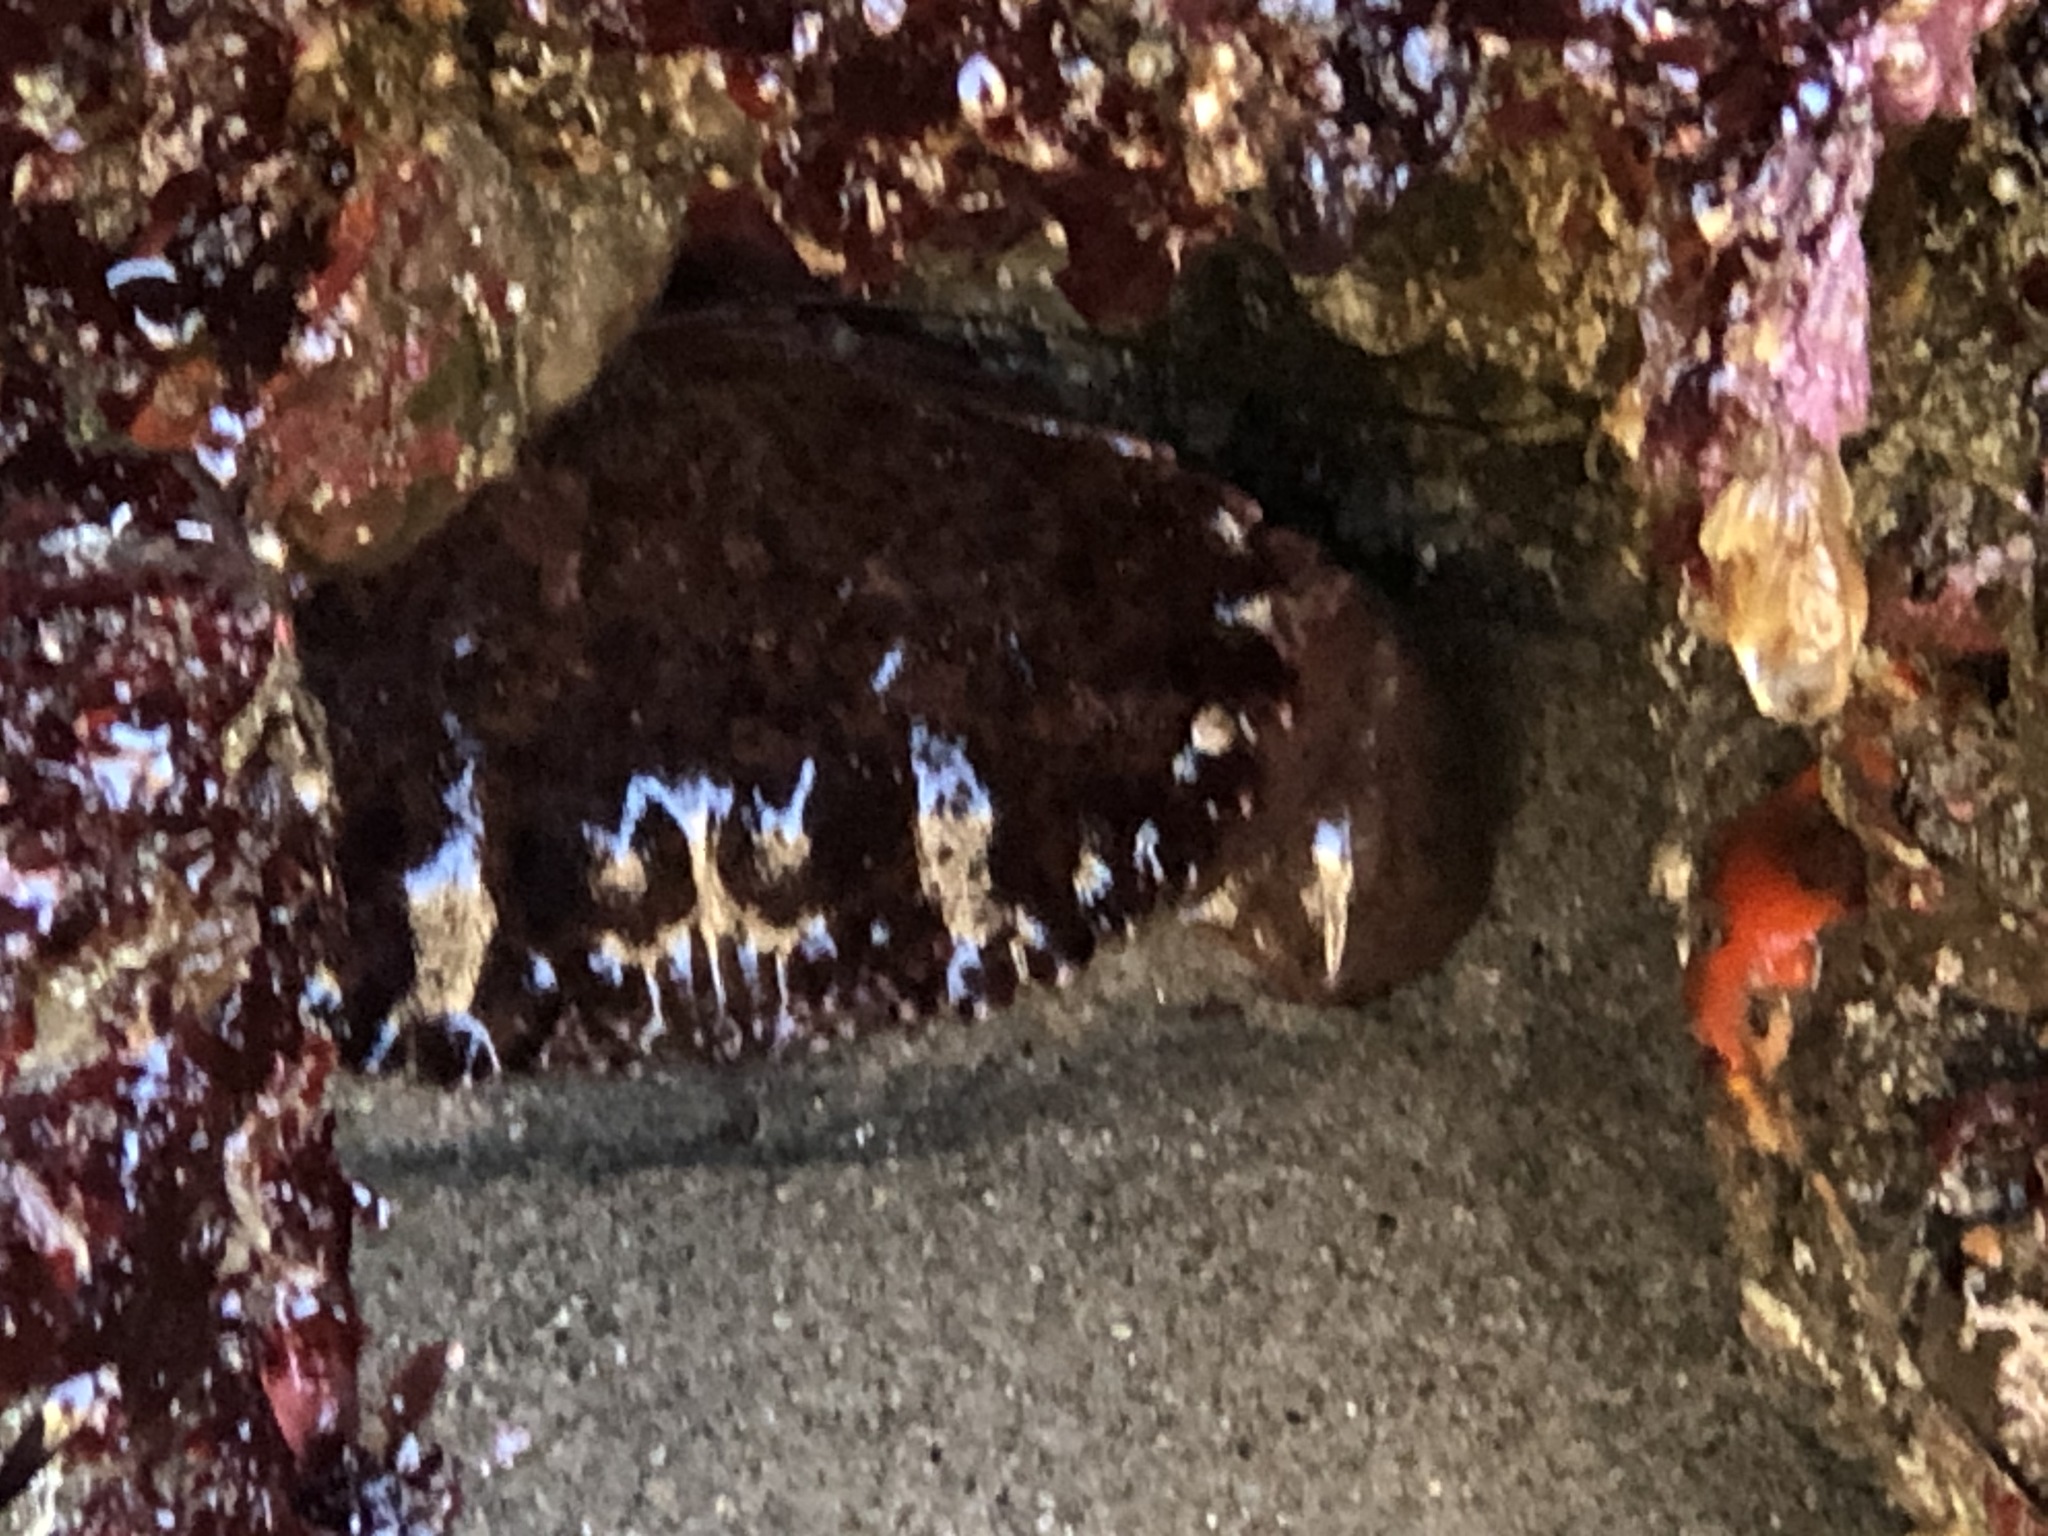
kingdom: Animalia
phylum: Arthropoda
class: Malacostraca
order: Decapoda
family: Cancridae
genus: Romaleon
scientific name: Romaleon antennarium
